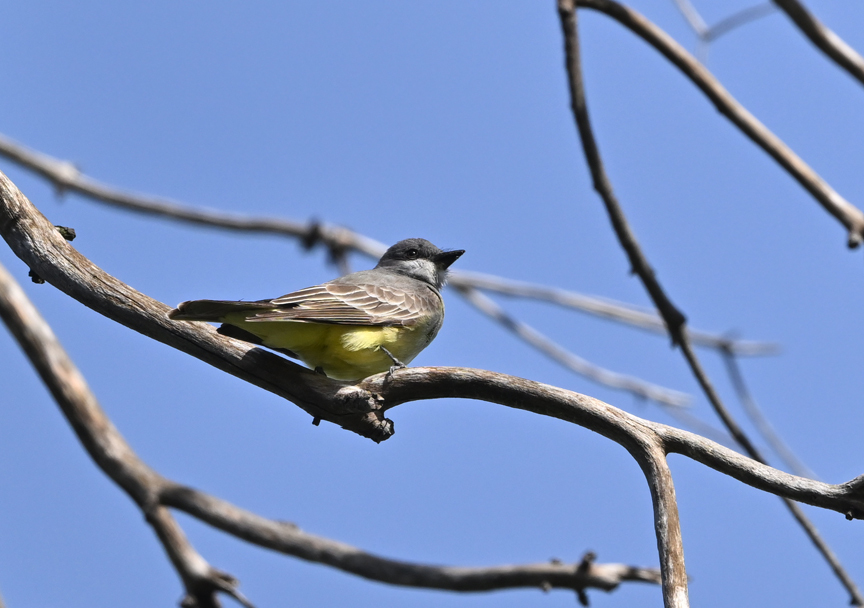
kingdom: Animalia
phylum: Chordata
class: Aves
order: Passeriformes
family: Tyrannidae
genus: Tyrannus
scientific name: Tyrannus vociferans
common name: Cassin's kingbird
